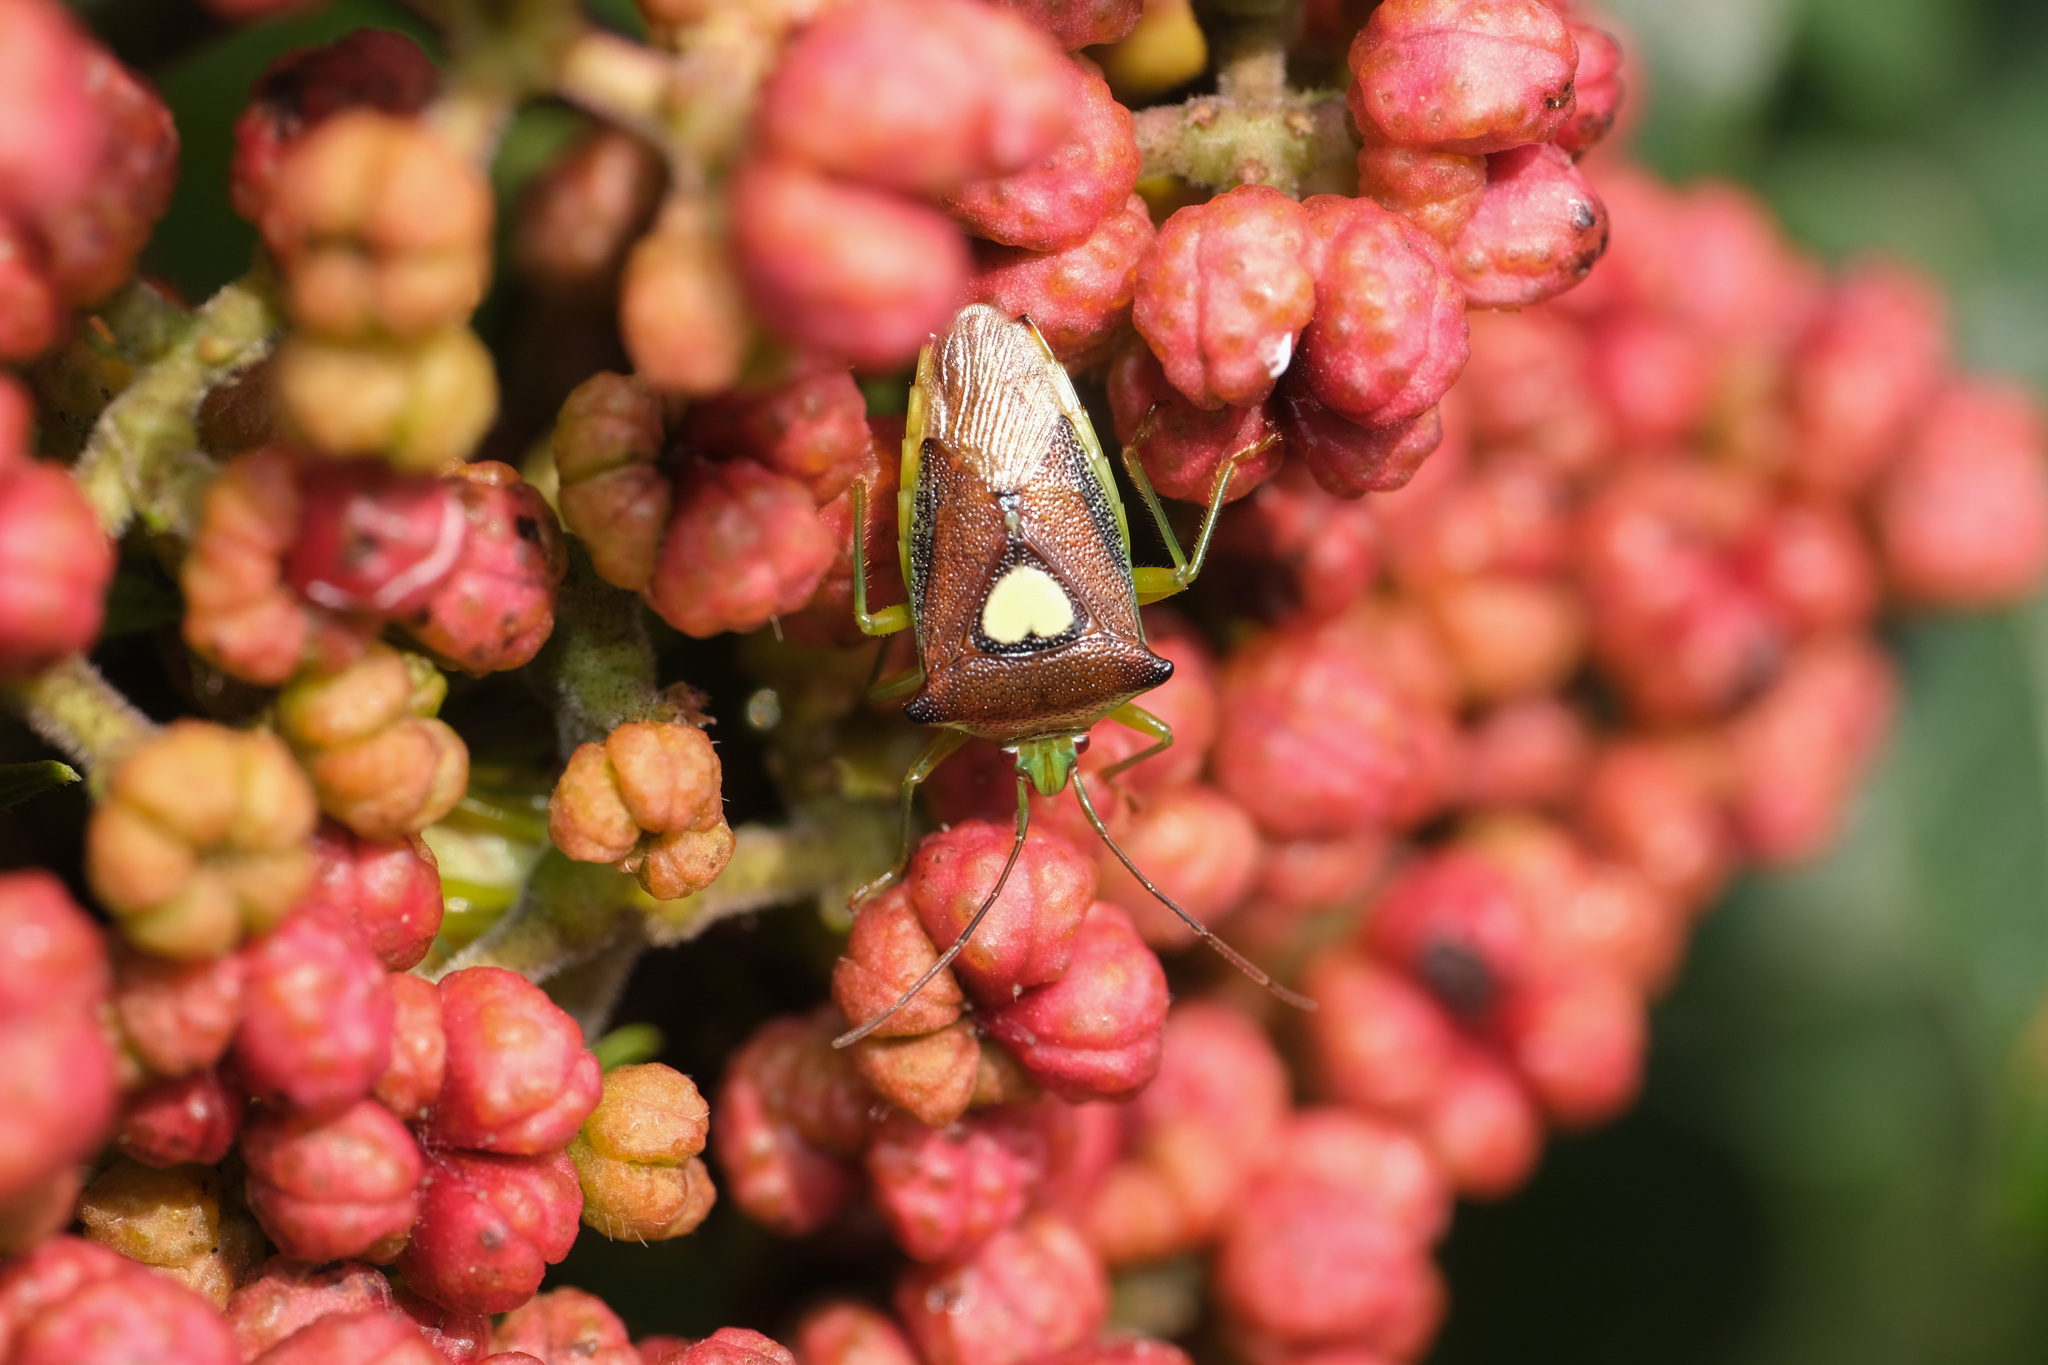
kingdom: Animalia
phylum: Arthropoda
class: Insecta
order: Hemiptera
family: Acanthosomatidae
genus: Sastragala
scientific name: Sastragala esakii
